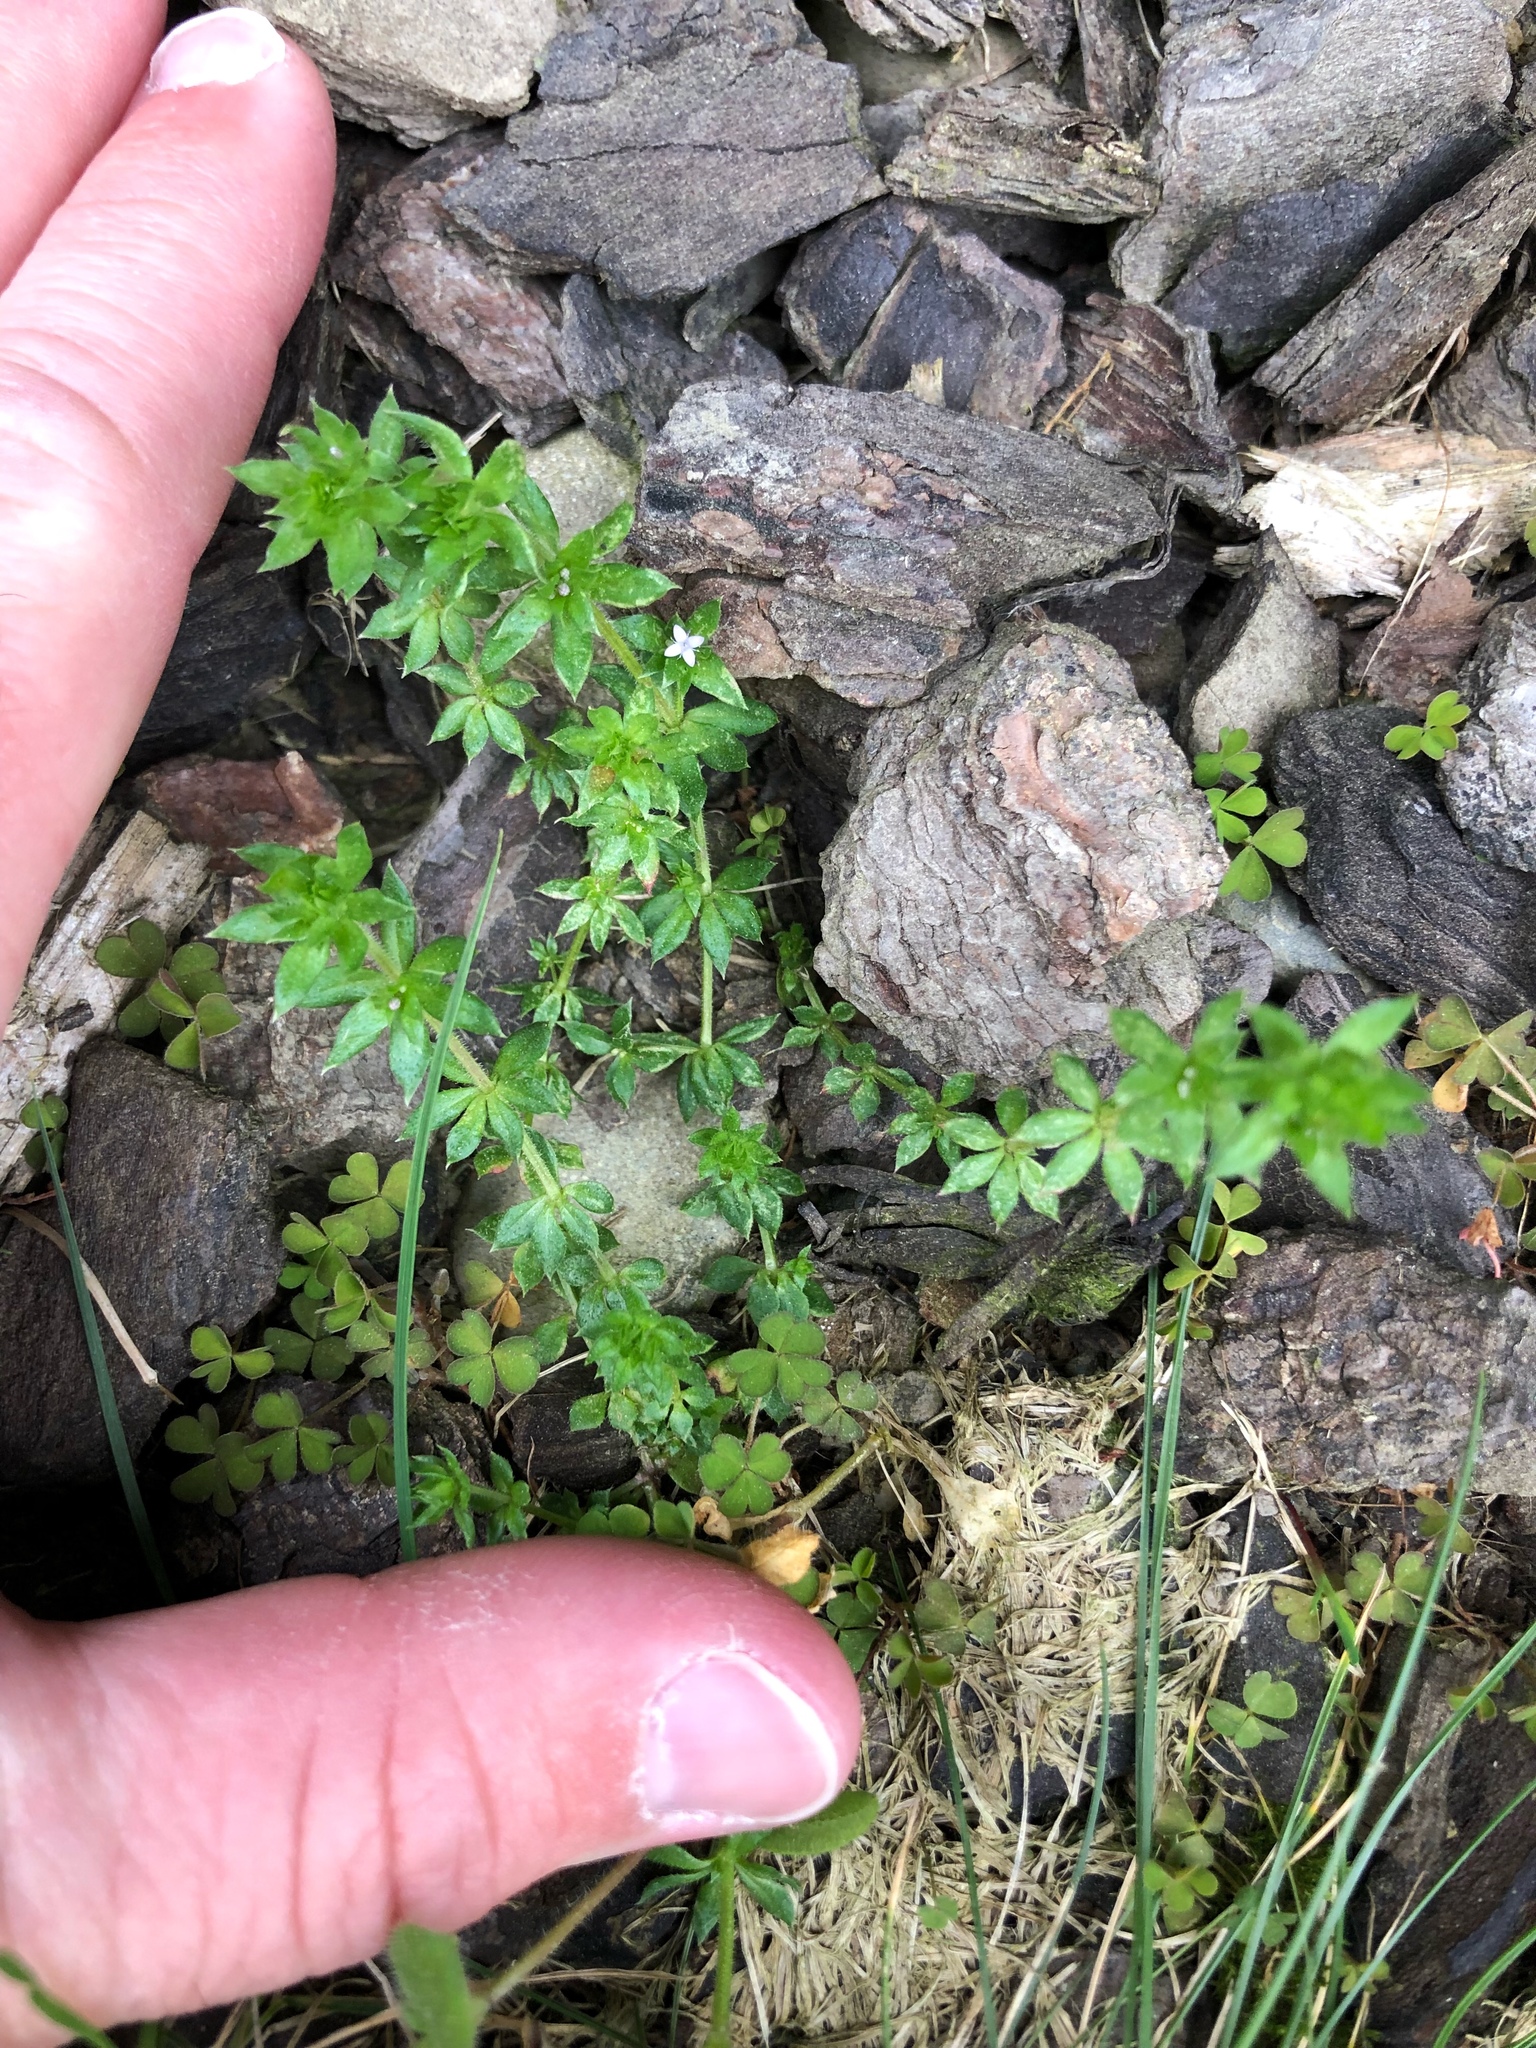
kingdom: Plantae
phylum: Tracheophyta
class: Magnoliopsida
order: Gentianales
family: Rubiaceae
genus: Sherardia
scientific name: Sherardia arvensis
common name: Field madder
